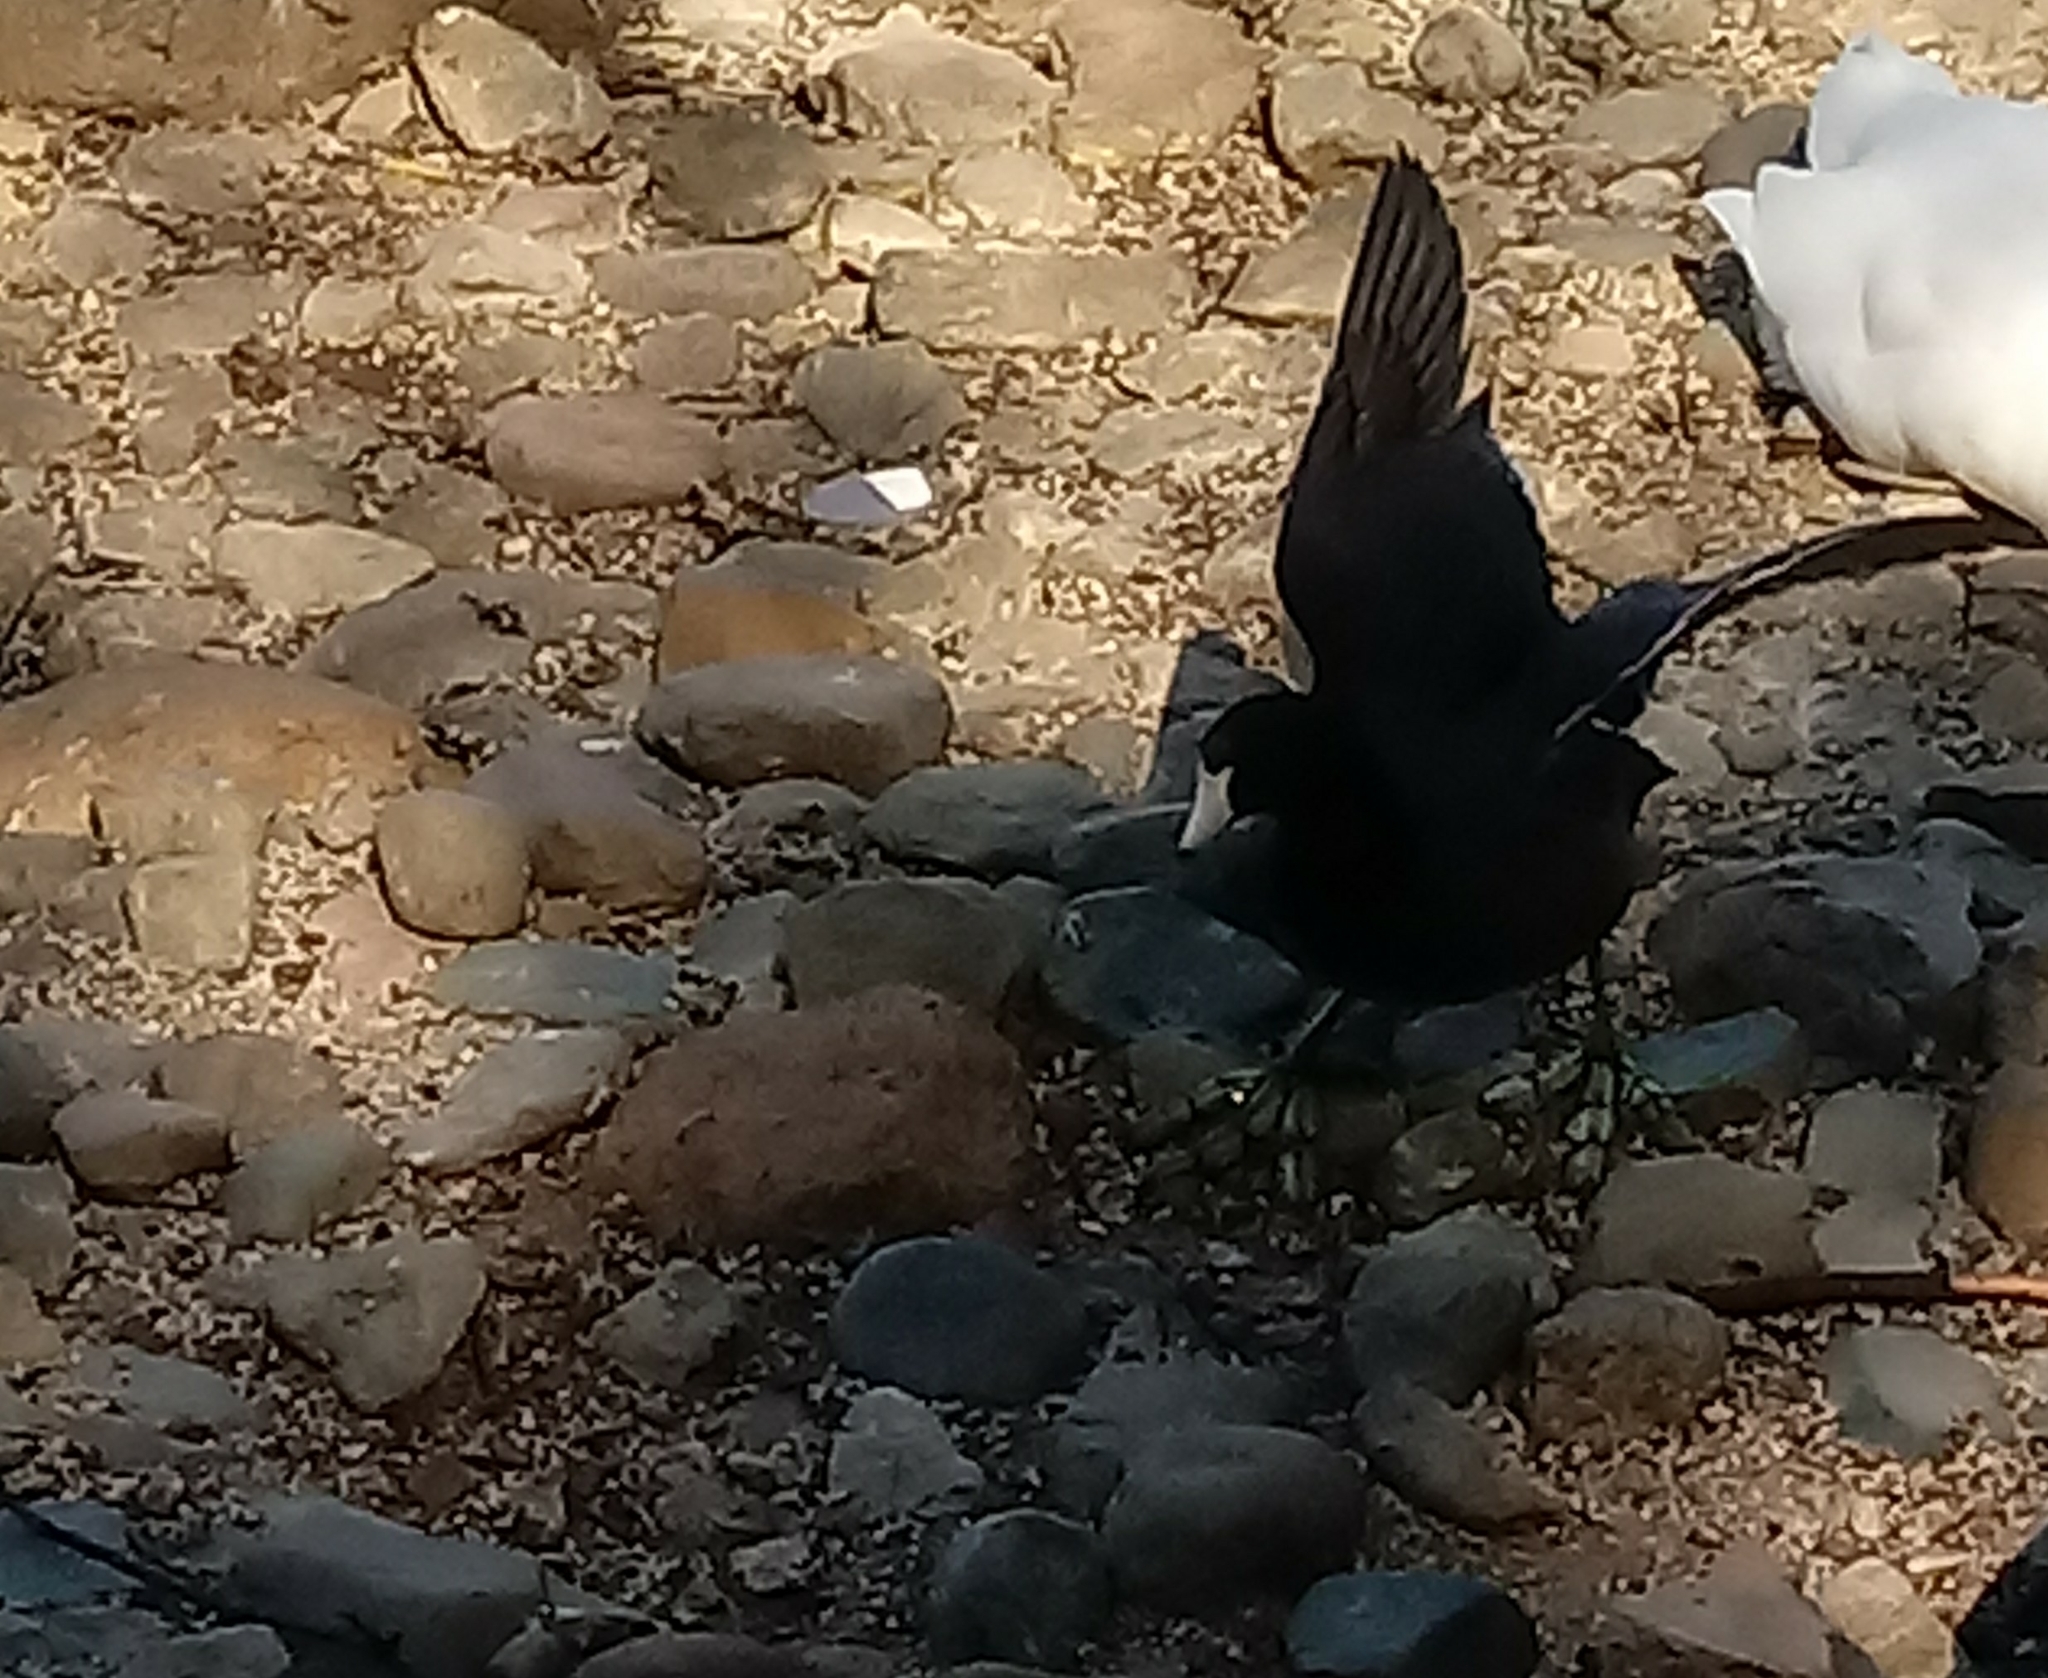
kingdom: Animalia
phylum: Chordata
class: Aves
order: Gruiformes
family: Rallidae
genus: Fulica
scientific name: Fulica americana
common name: American coot
